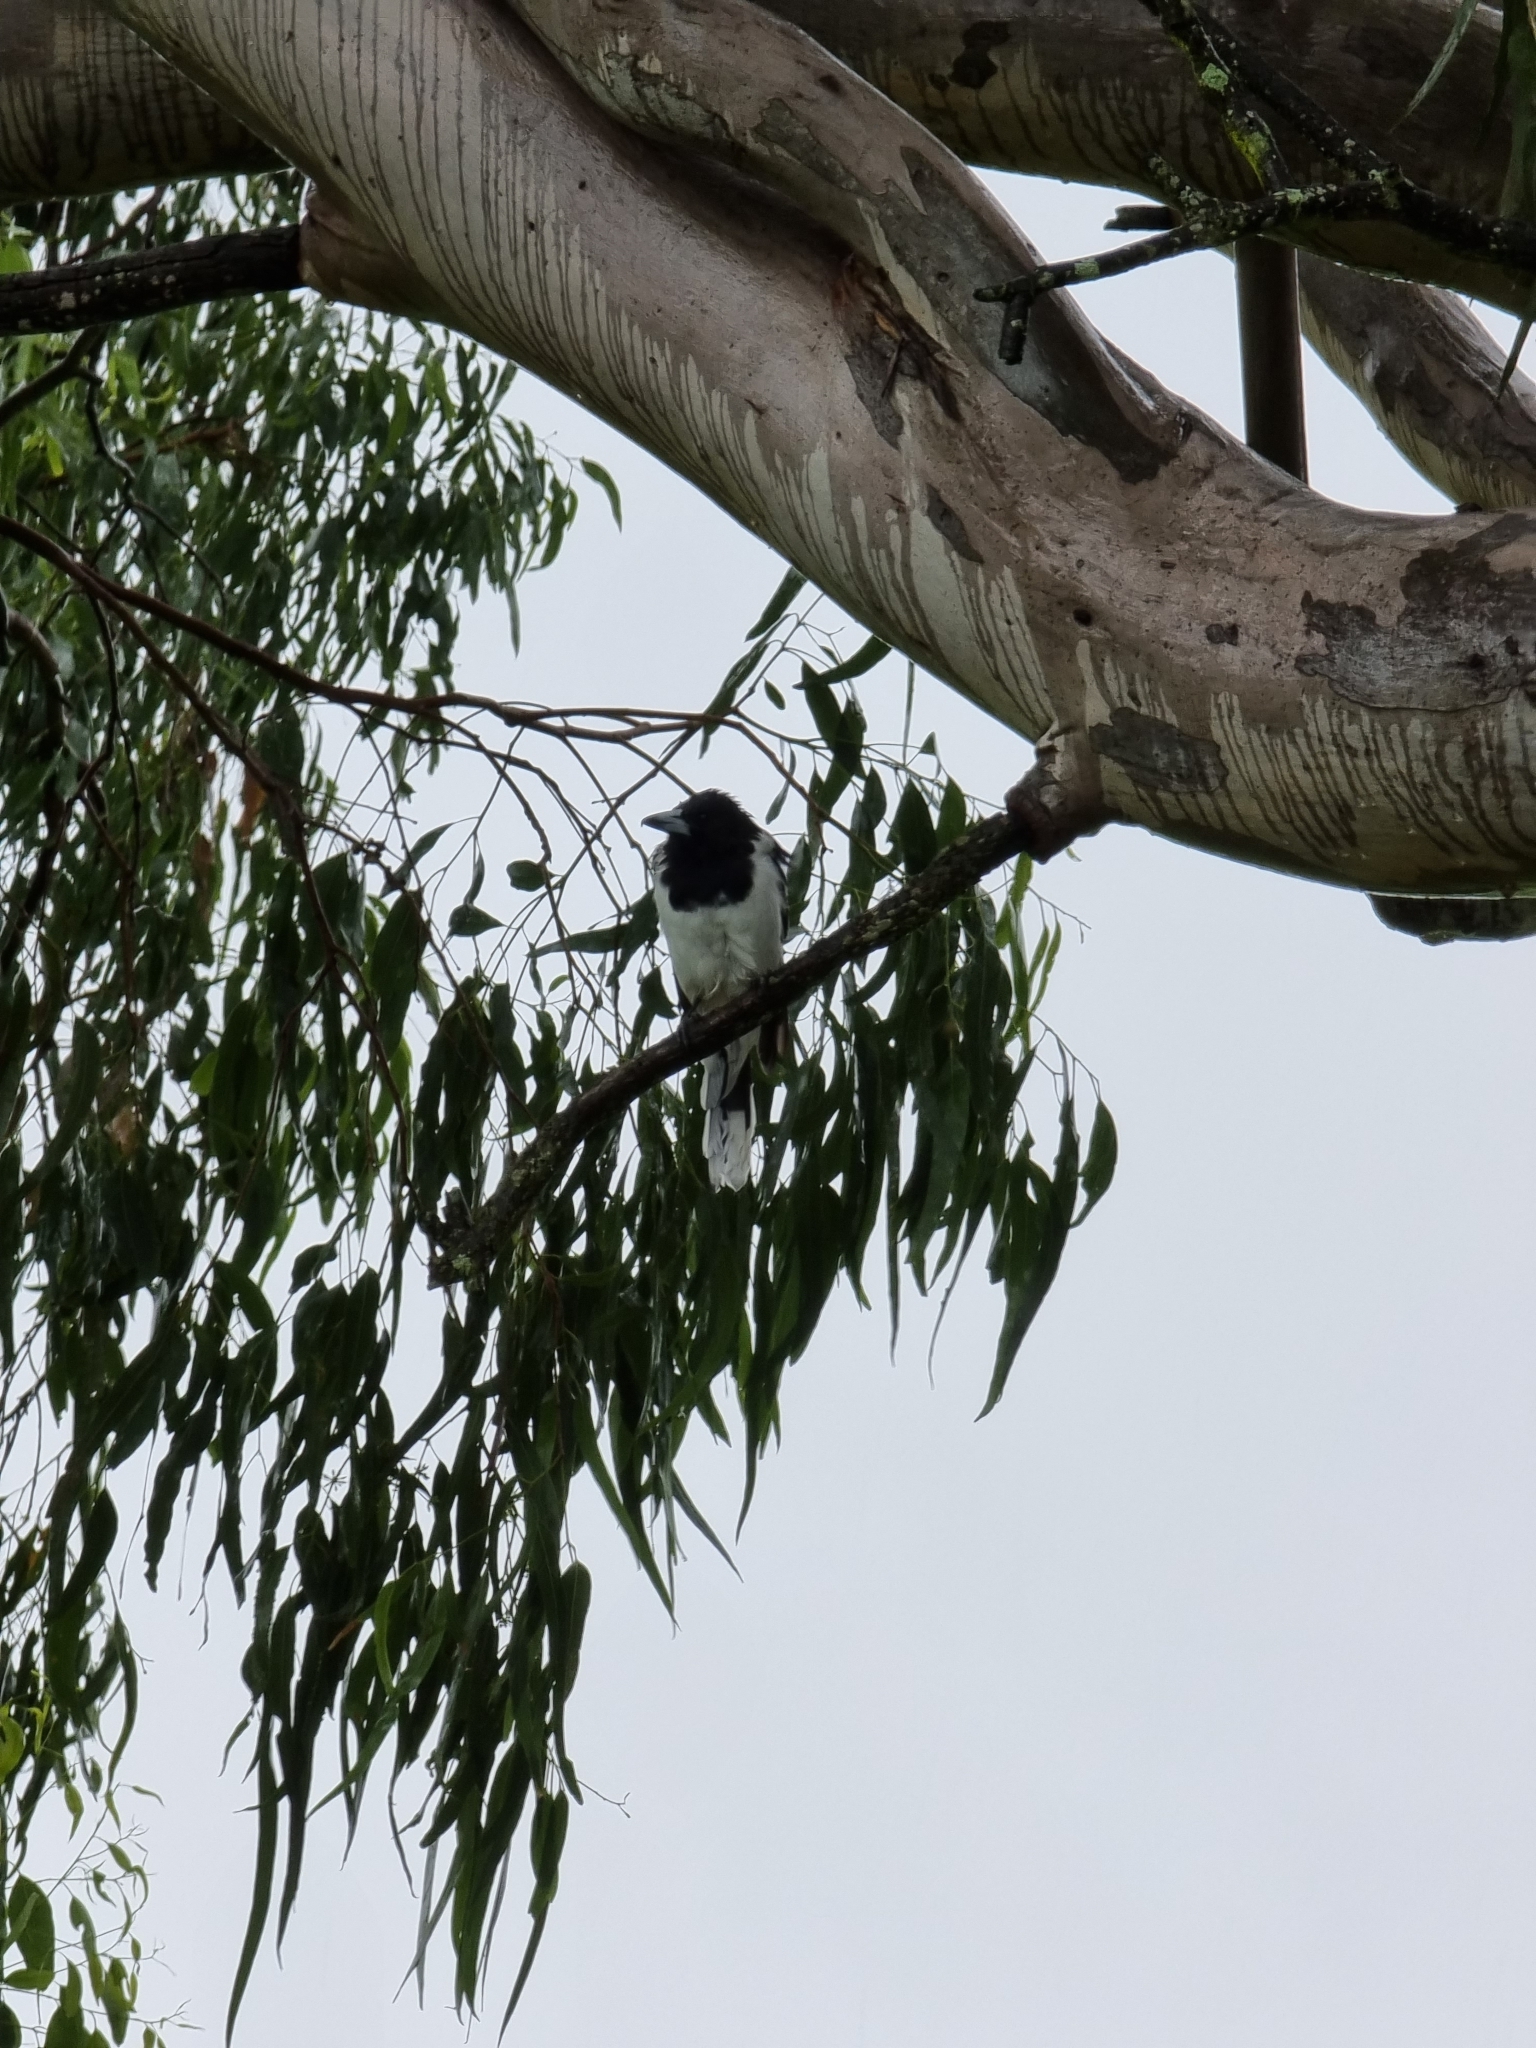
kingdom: Animalia
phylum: Chordata
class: Aves
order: Passeriformes
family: Cracticidae
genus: Cracticus
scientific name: Cracticus nigrogularis
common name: Pied butcherbird
